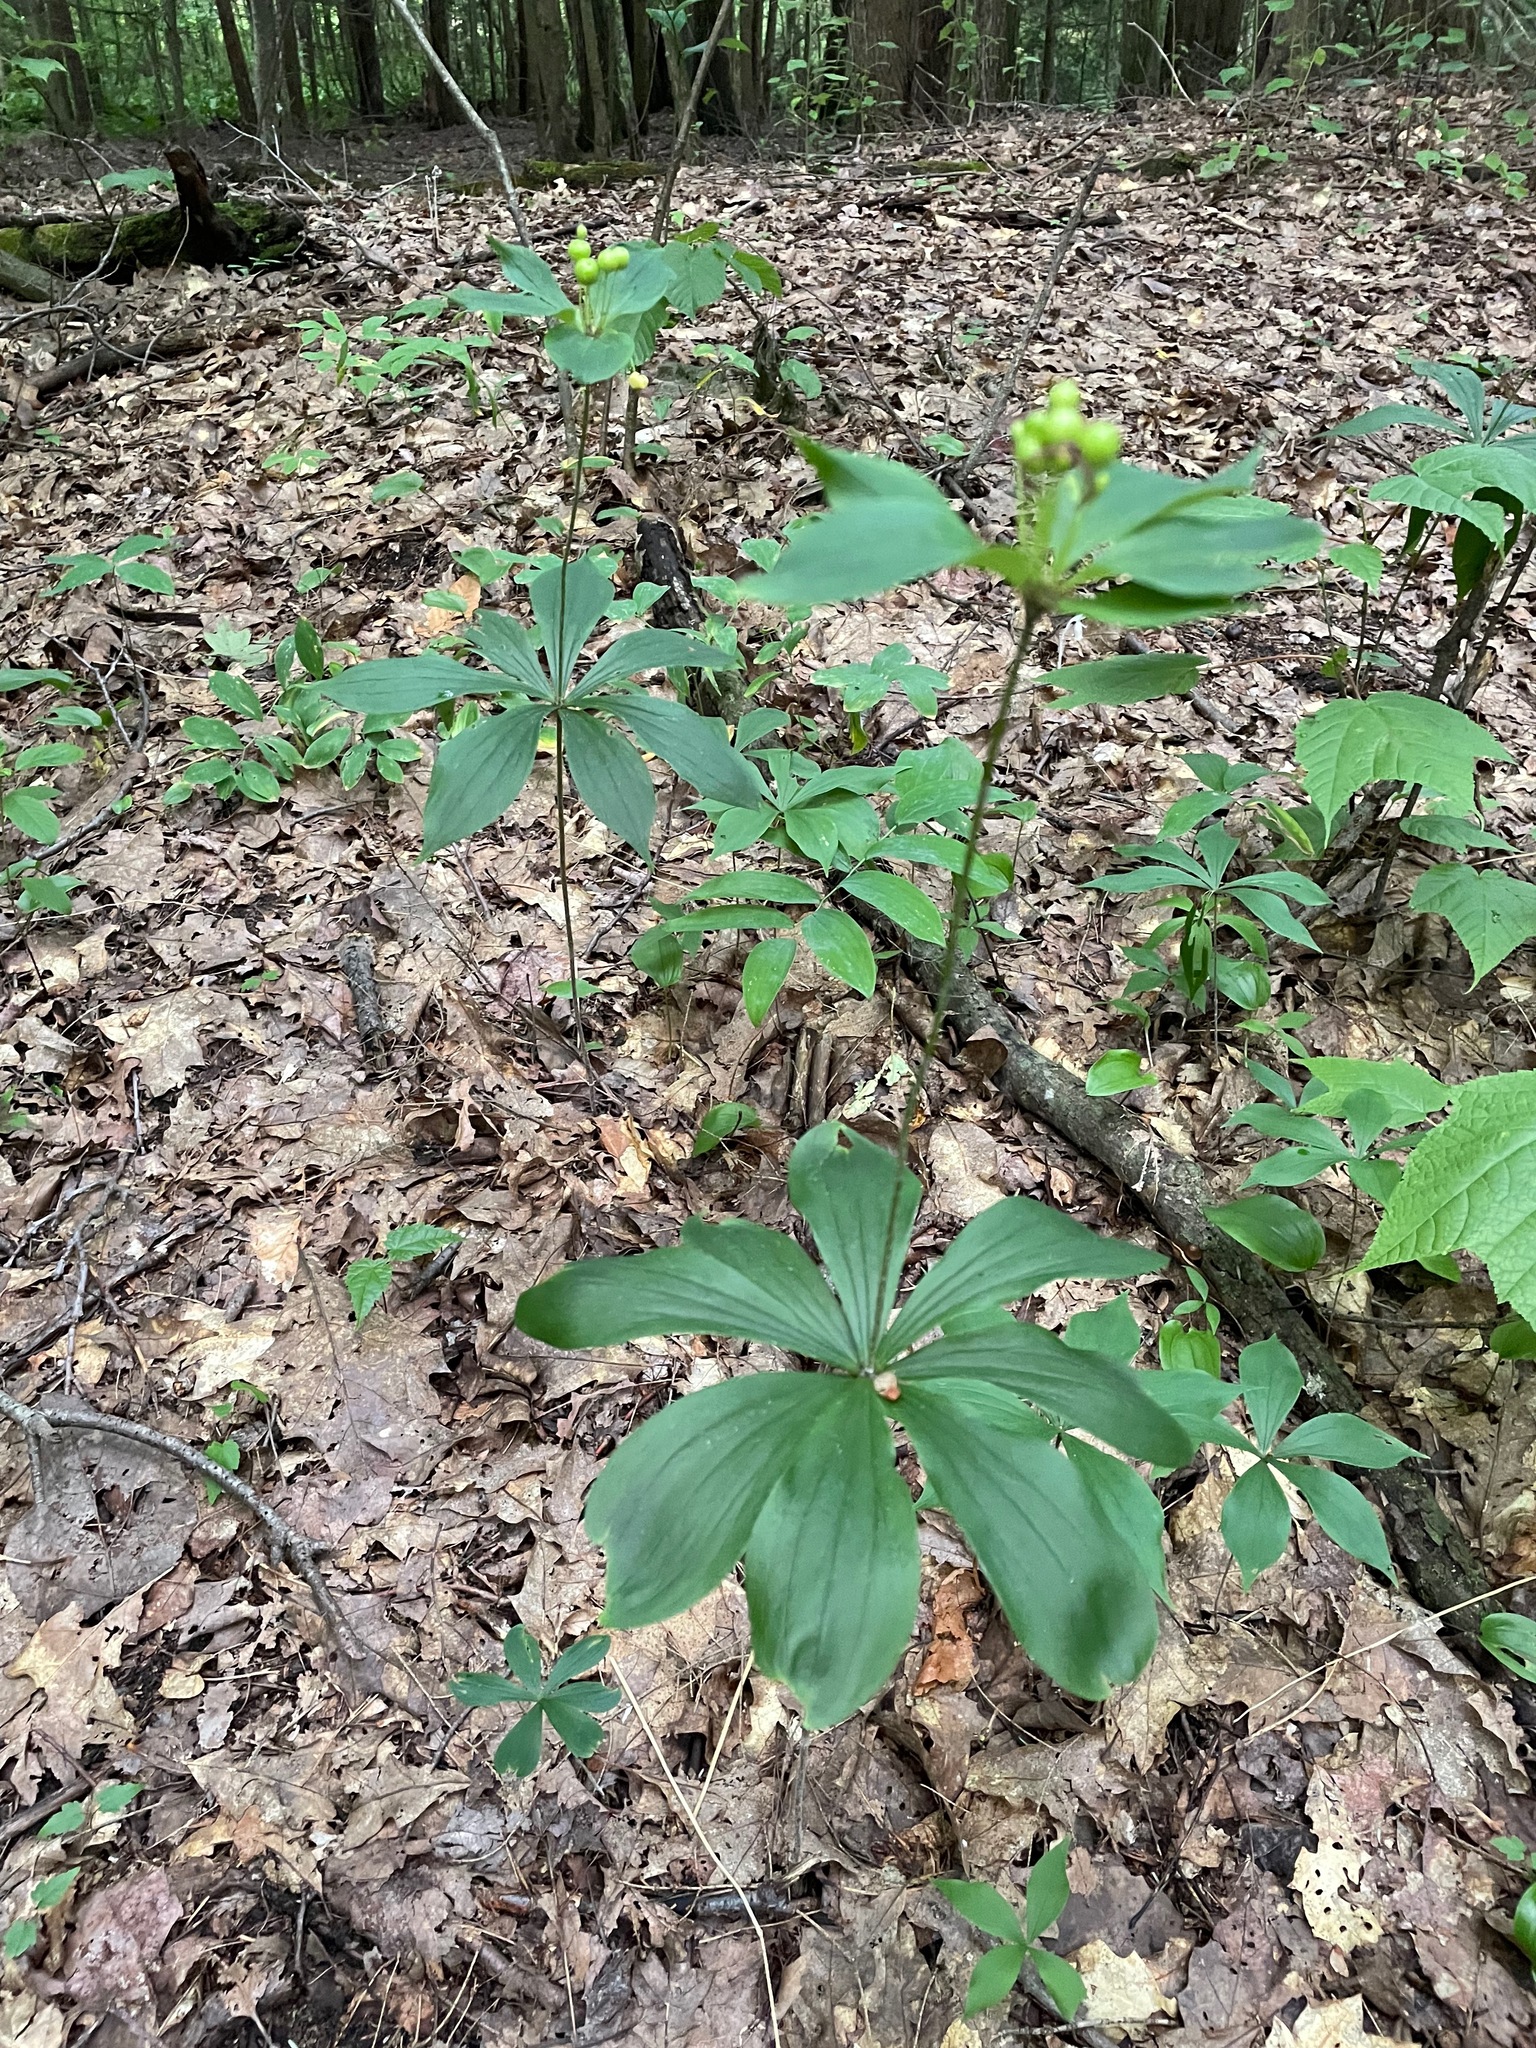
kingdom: Plantae
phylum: Tracheophyta
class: Liliopsida
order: Liliales
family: Liliaceae
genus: Medeola
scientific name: Medeola virginiana
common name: Indian cucumber-root
